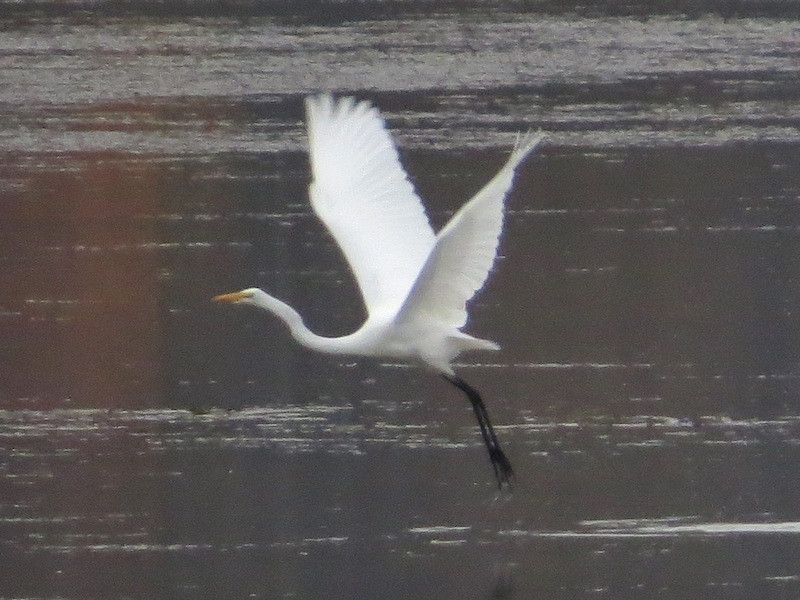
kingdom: Animalia
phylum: Chordata
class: Aves
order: Pelecaniformes
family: Ardeidae
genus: Ardea
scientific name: Ardea alba
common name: Great egret
